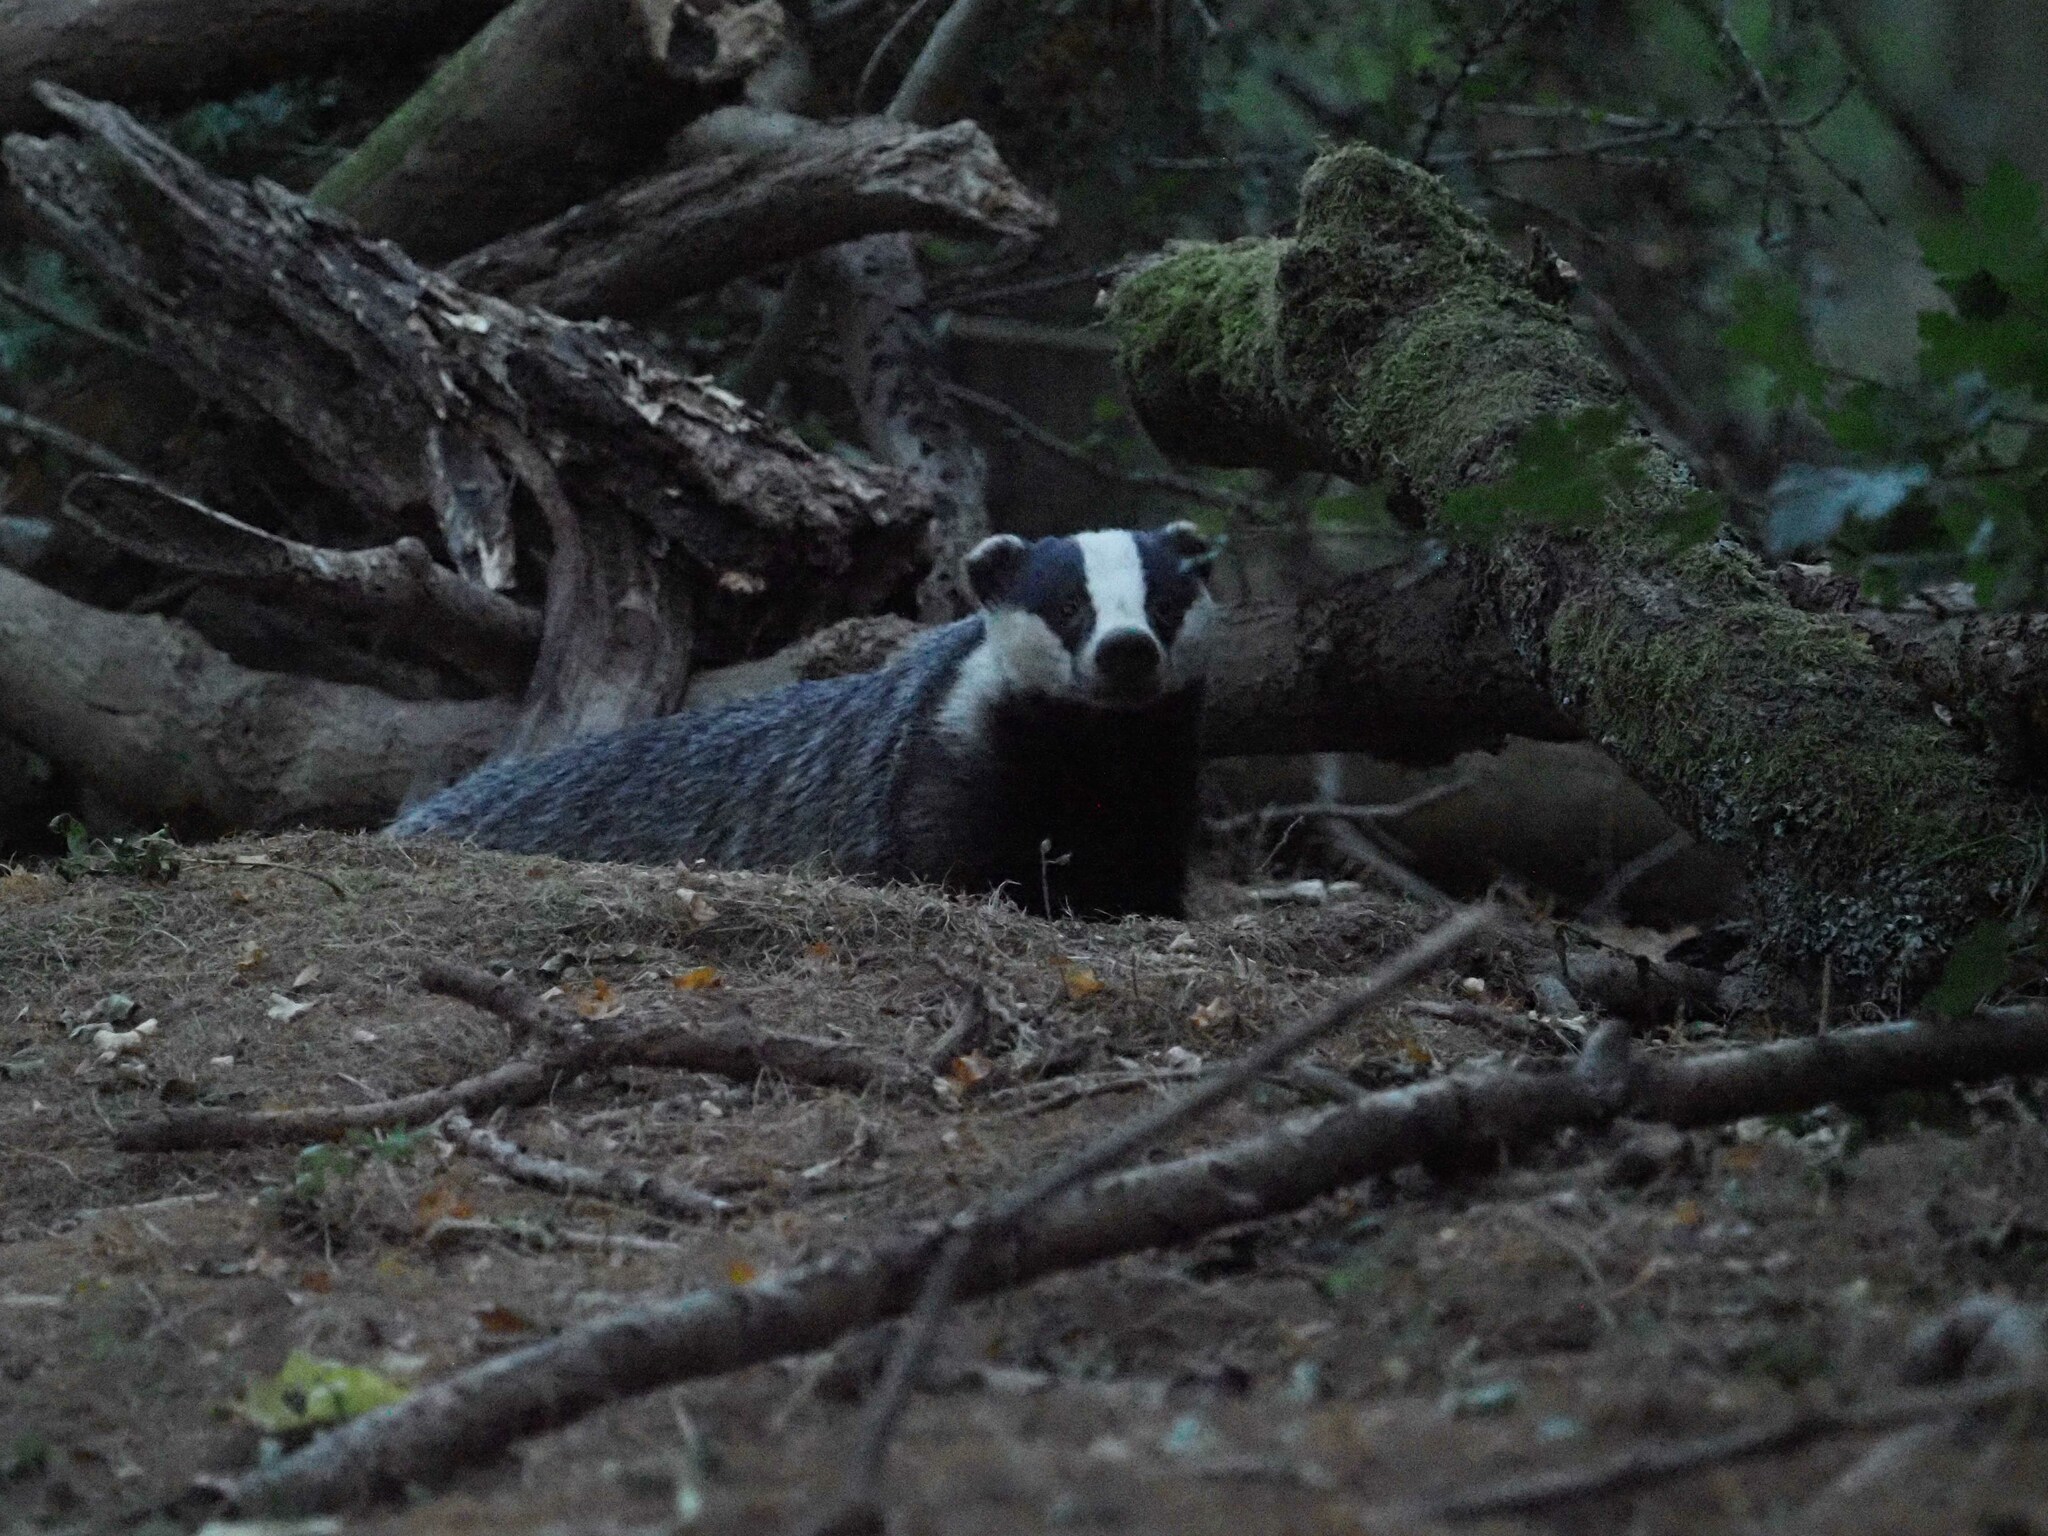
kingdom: Animalia
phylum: Chordata
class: Mammalia
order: Carnivora
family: Mustelidae
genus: Meles
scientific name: Meles meles
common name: Eurasian badger
